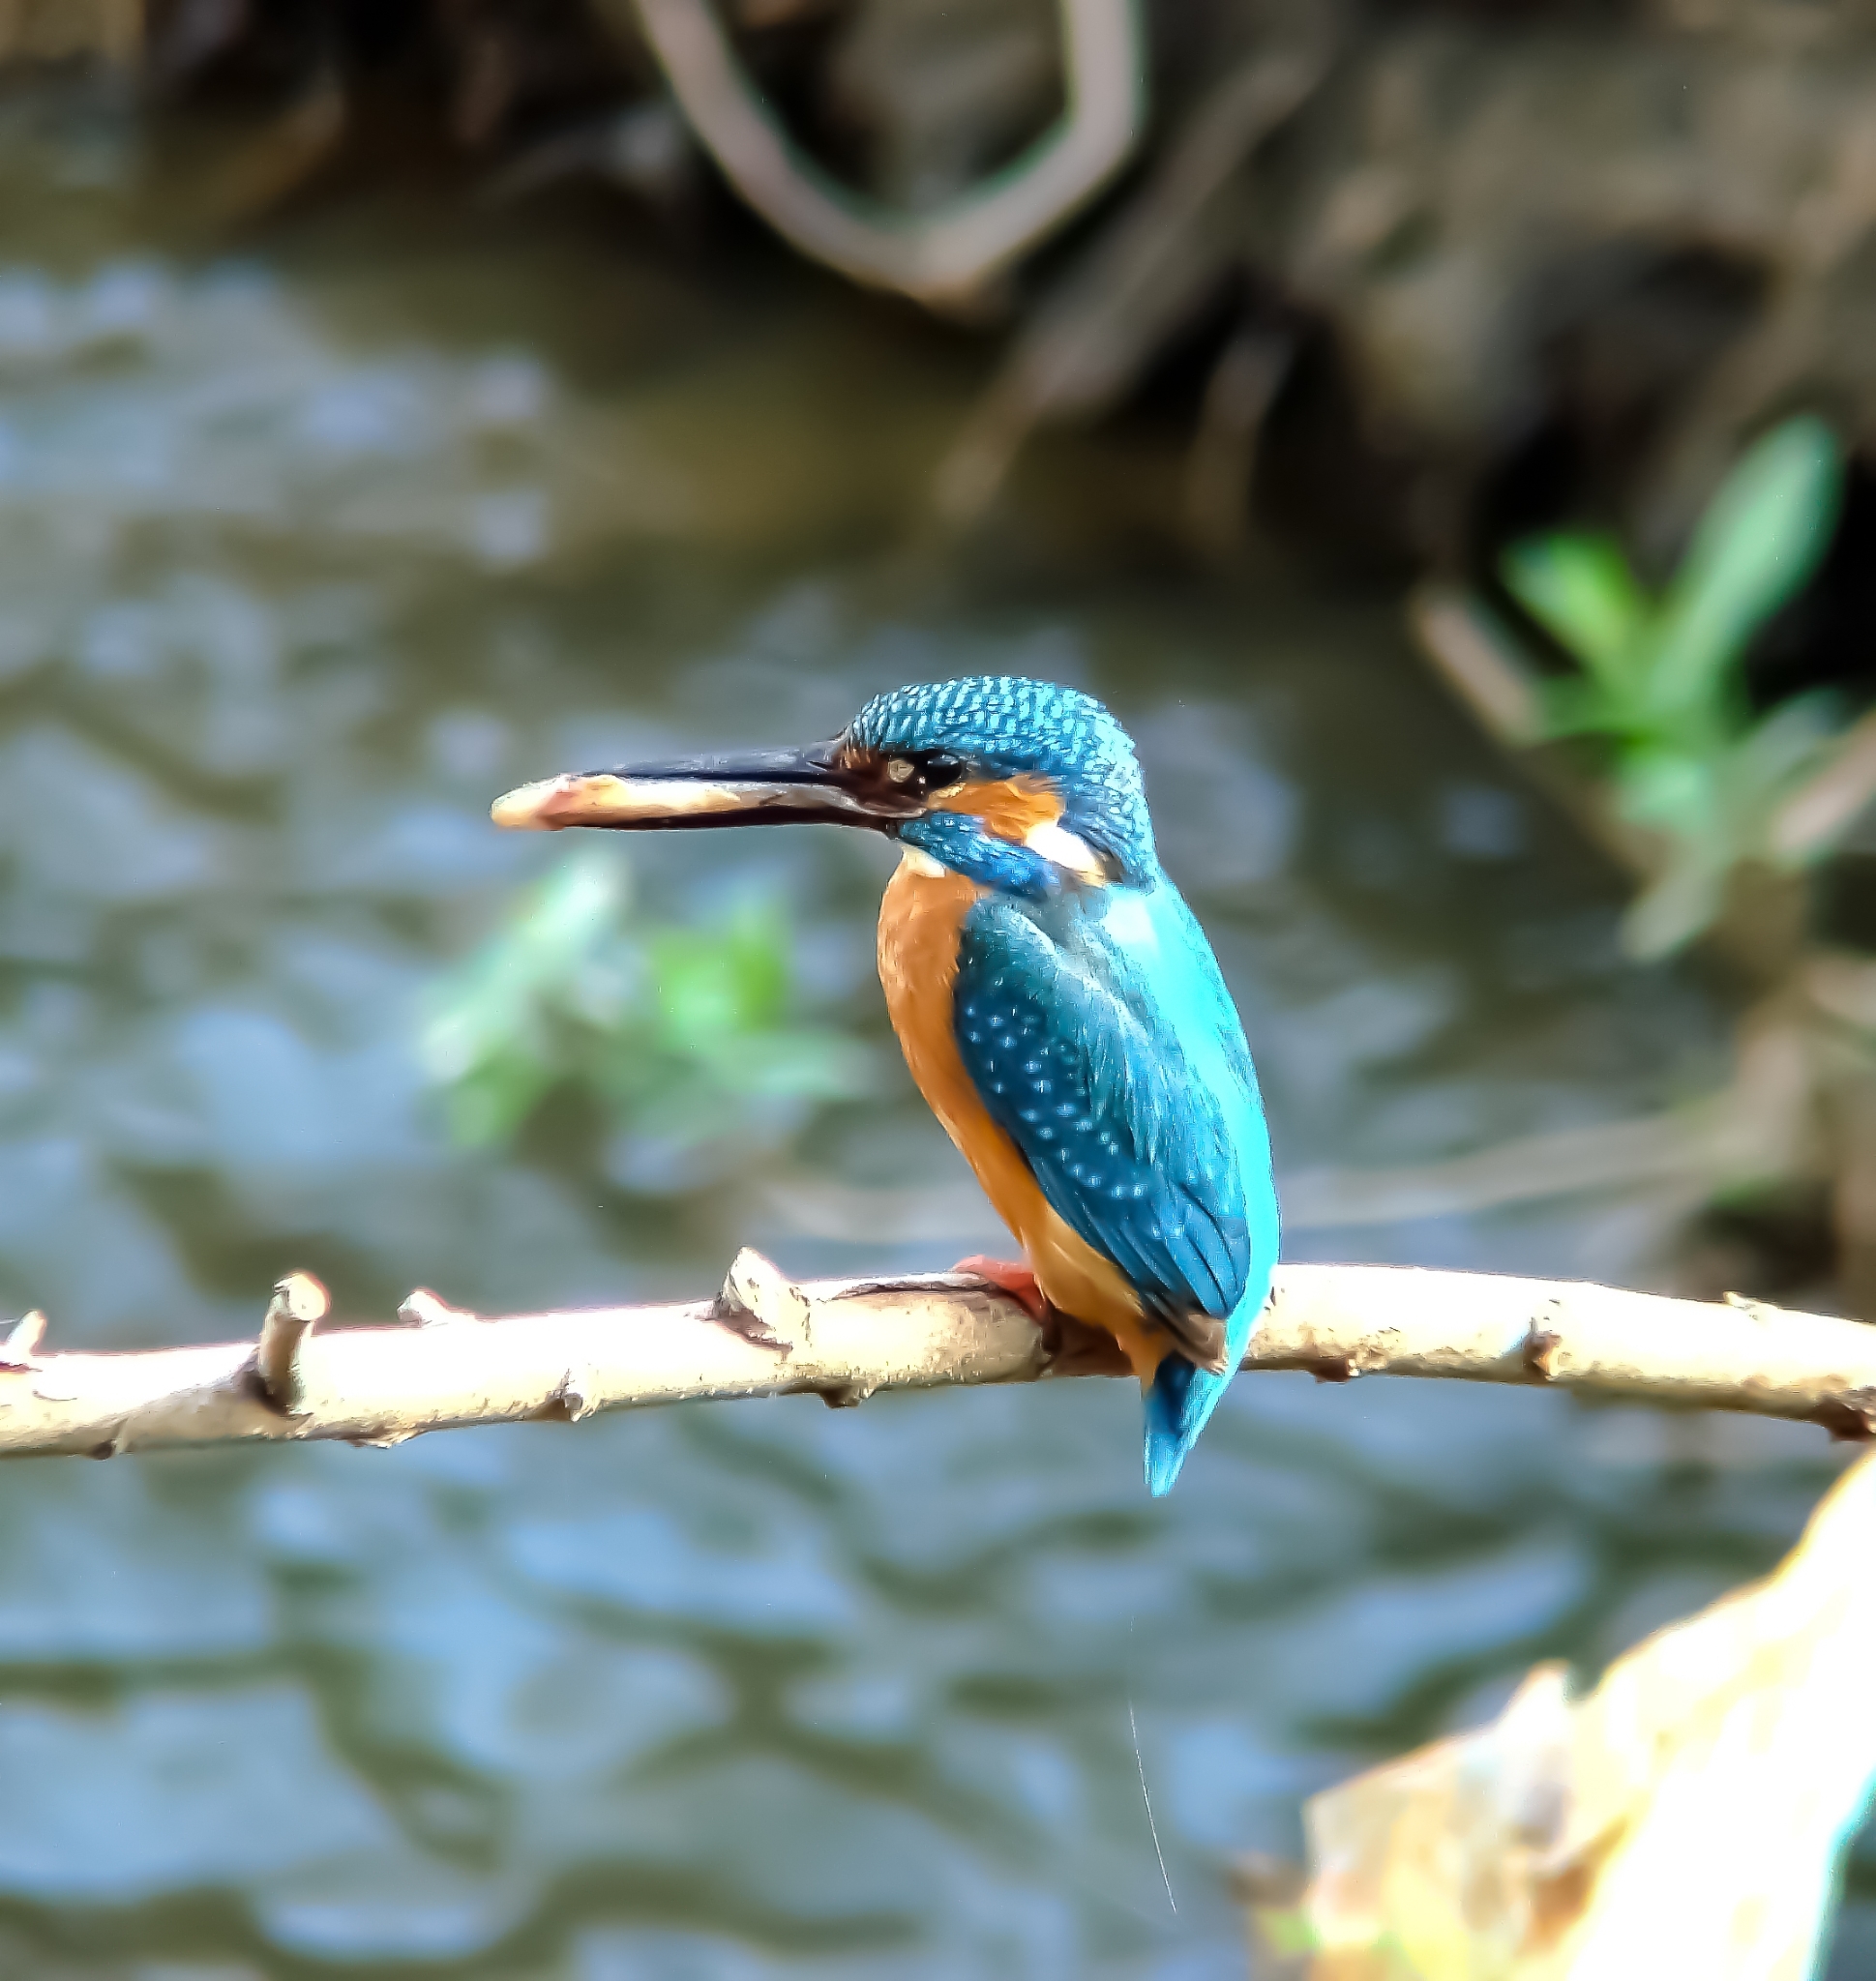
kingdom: Animalia
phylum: Chordata
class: Aves
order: Coraciiformes
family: Alcedinidae
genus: Alcedo
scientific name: Alcedo atthis
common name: Common kingfisher
